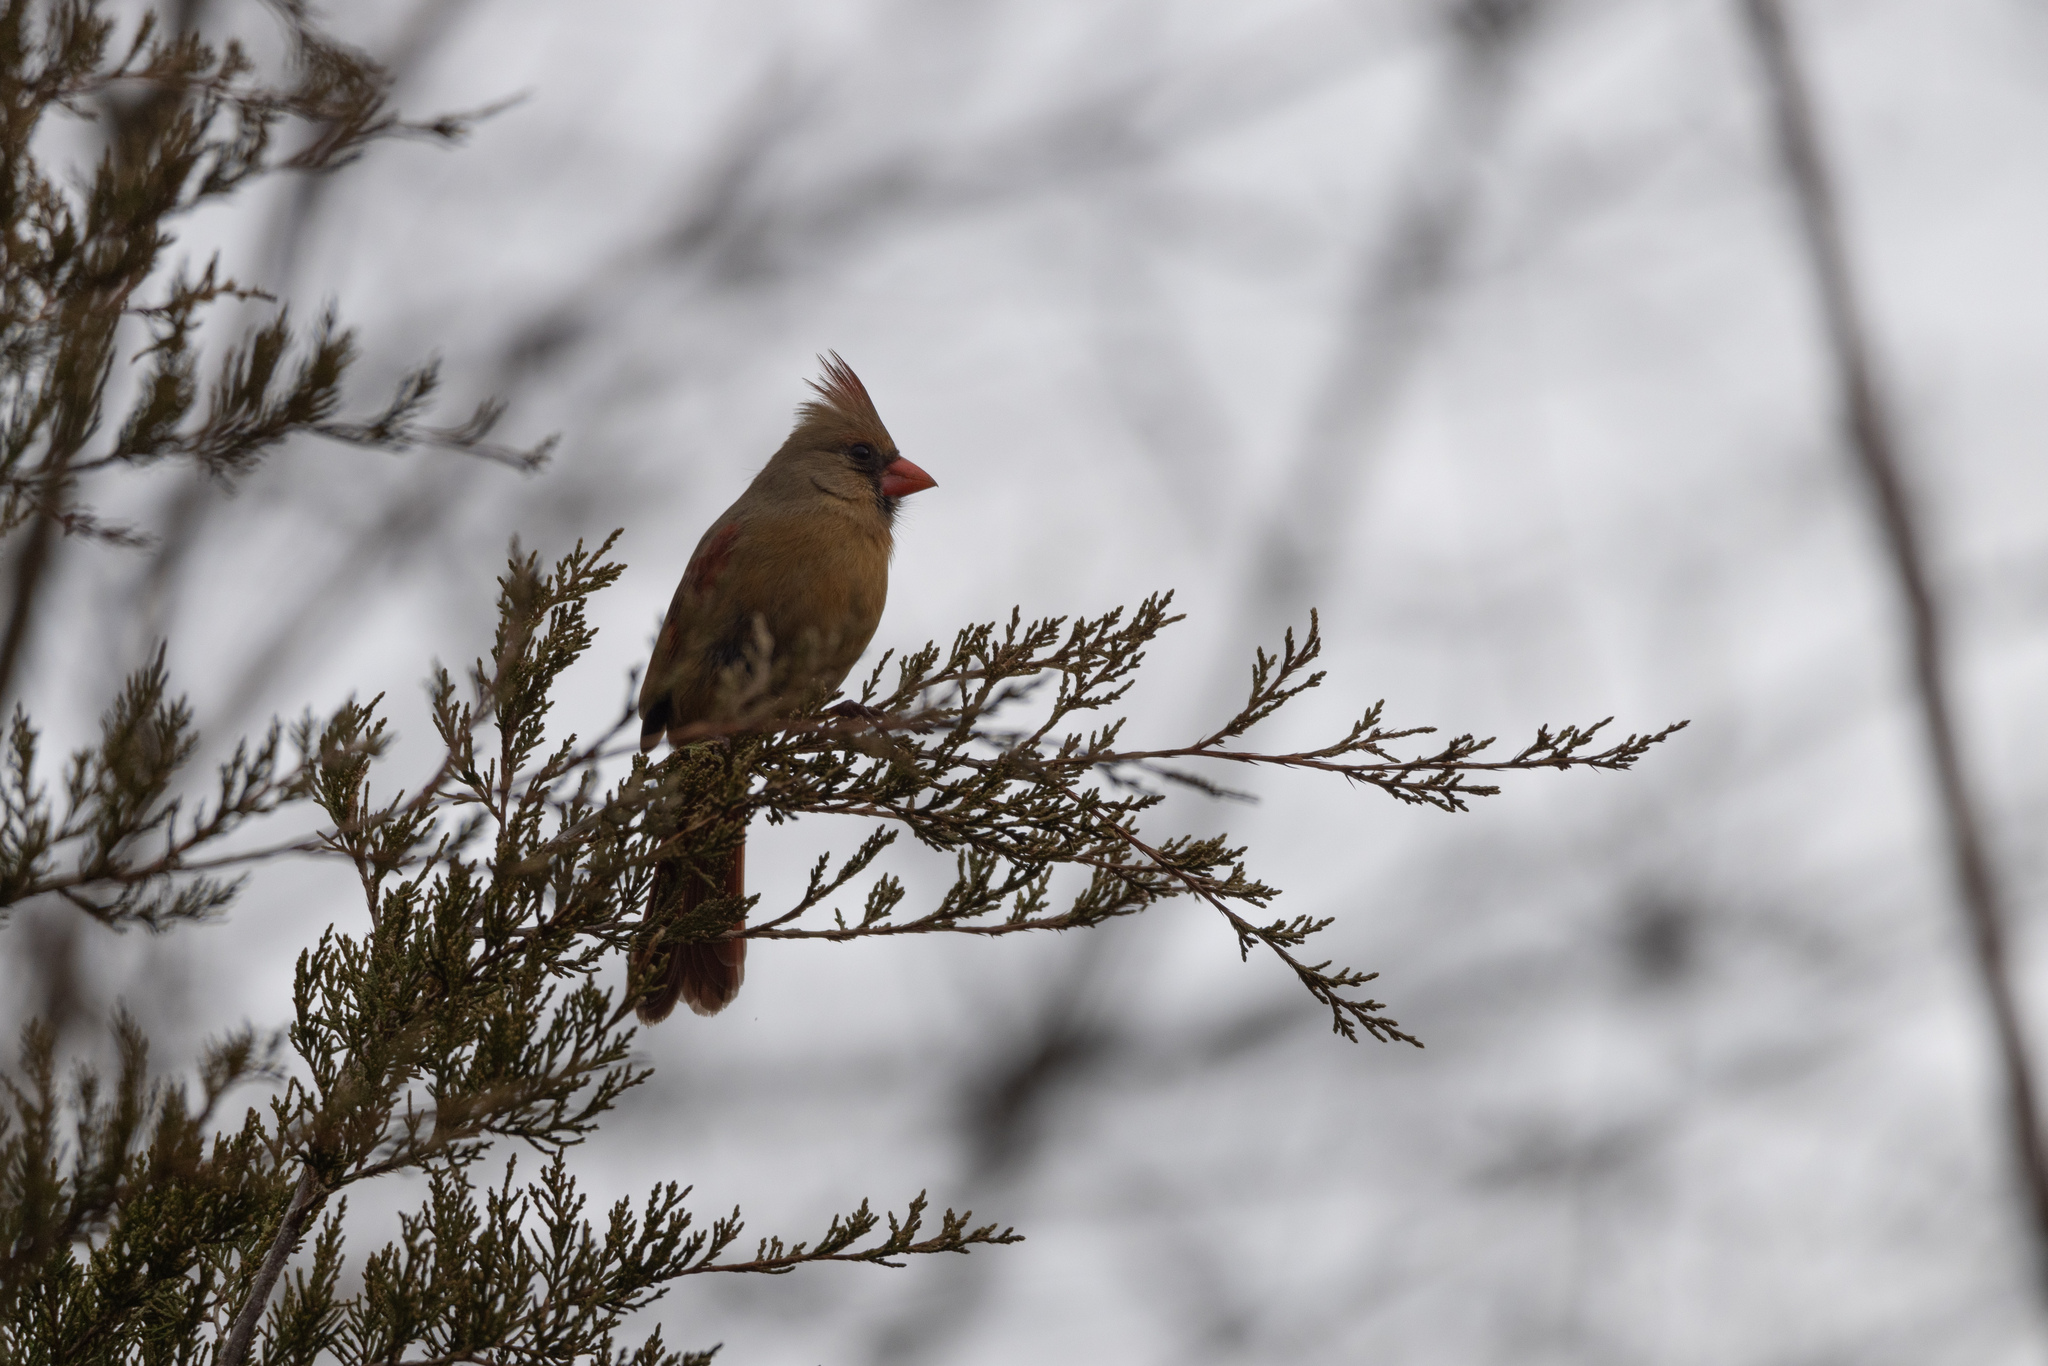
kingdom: Animalia
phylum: Chordata
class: Aves
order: Passeriformes
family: Cardinalidae
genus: Cardinalis
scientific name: Cardinalis cardinalis
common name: Northern cardinal
